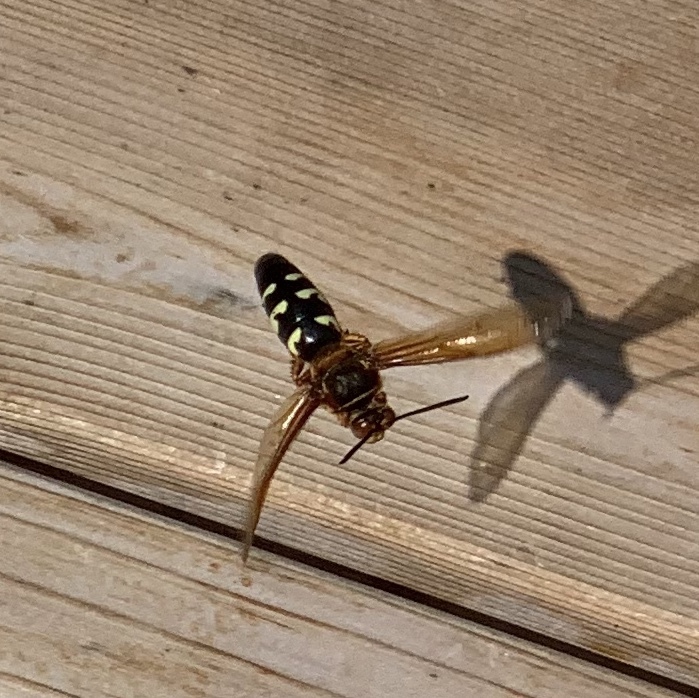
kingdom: Animalia
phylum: Arthropoda
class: Insecta
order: Hymenoptera
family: Crabronidae
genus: Sphecius
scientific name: Sphecius speciosus
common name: Cicada killer
